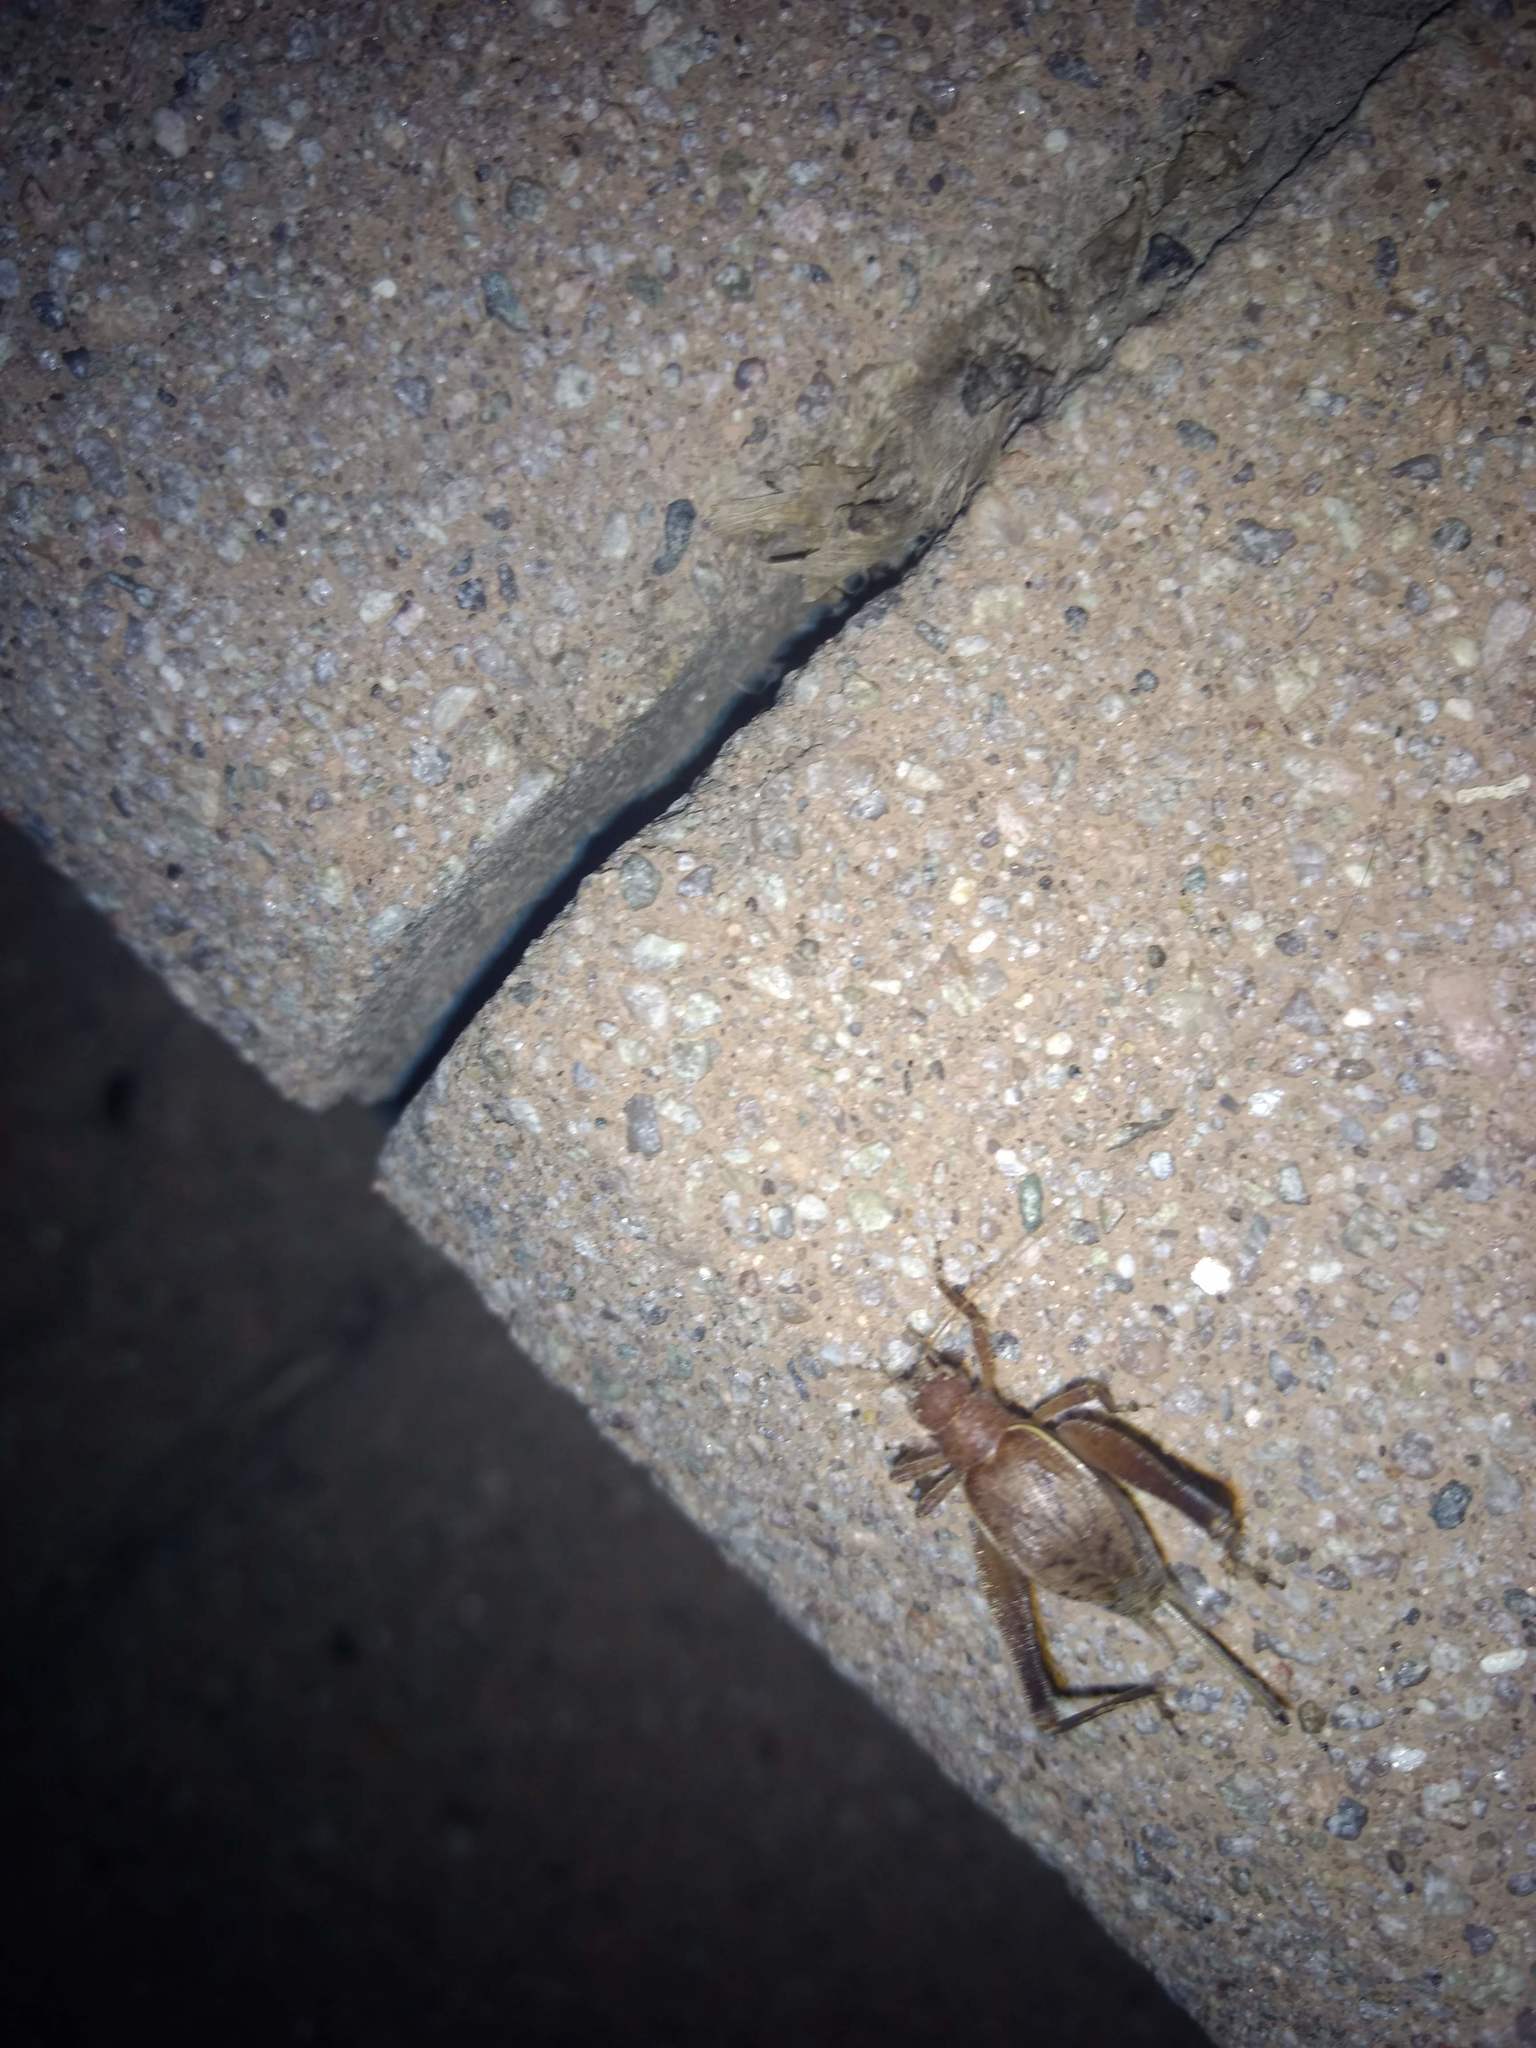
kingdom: Animalia
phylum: Arthropoda
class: Insecta
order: Orthoptera
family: Gryllidae
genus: Hapithus
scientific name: Hapithus agitator
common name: Restless bush cricket
